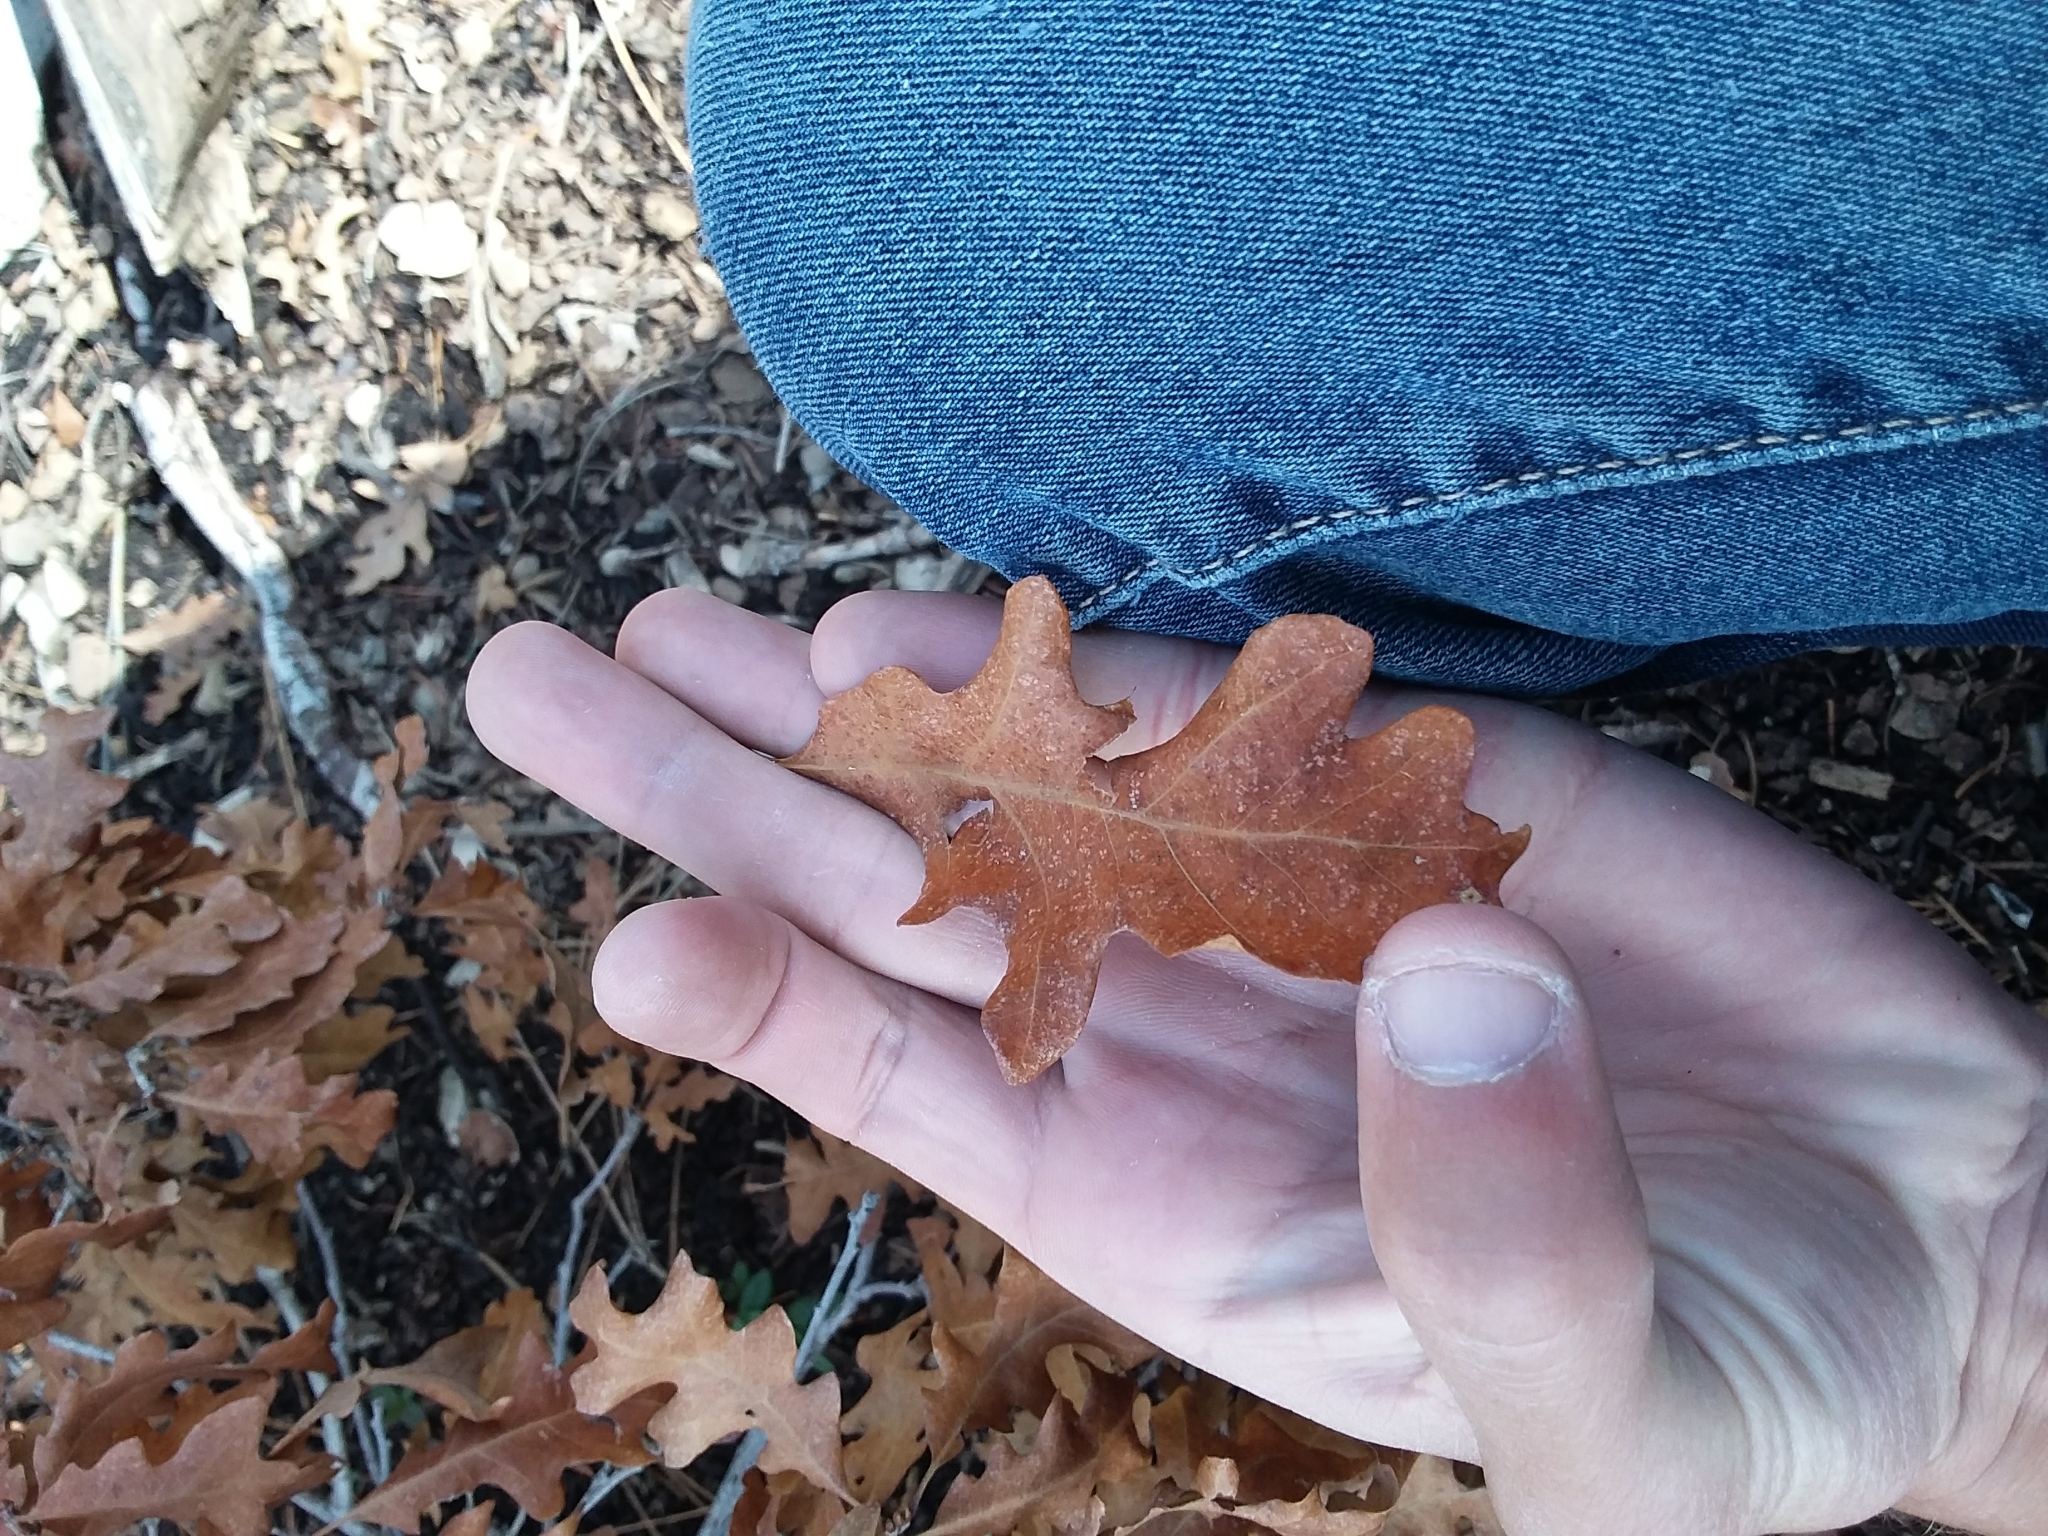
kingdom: Plantae
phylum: Tracheophyta
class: Magnoliopsida
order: Fagales
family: Fagaceae
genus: Quercus
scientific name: Quercus gambelii
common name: Gambel oak
